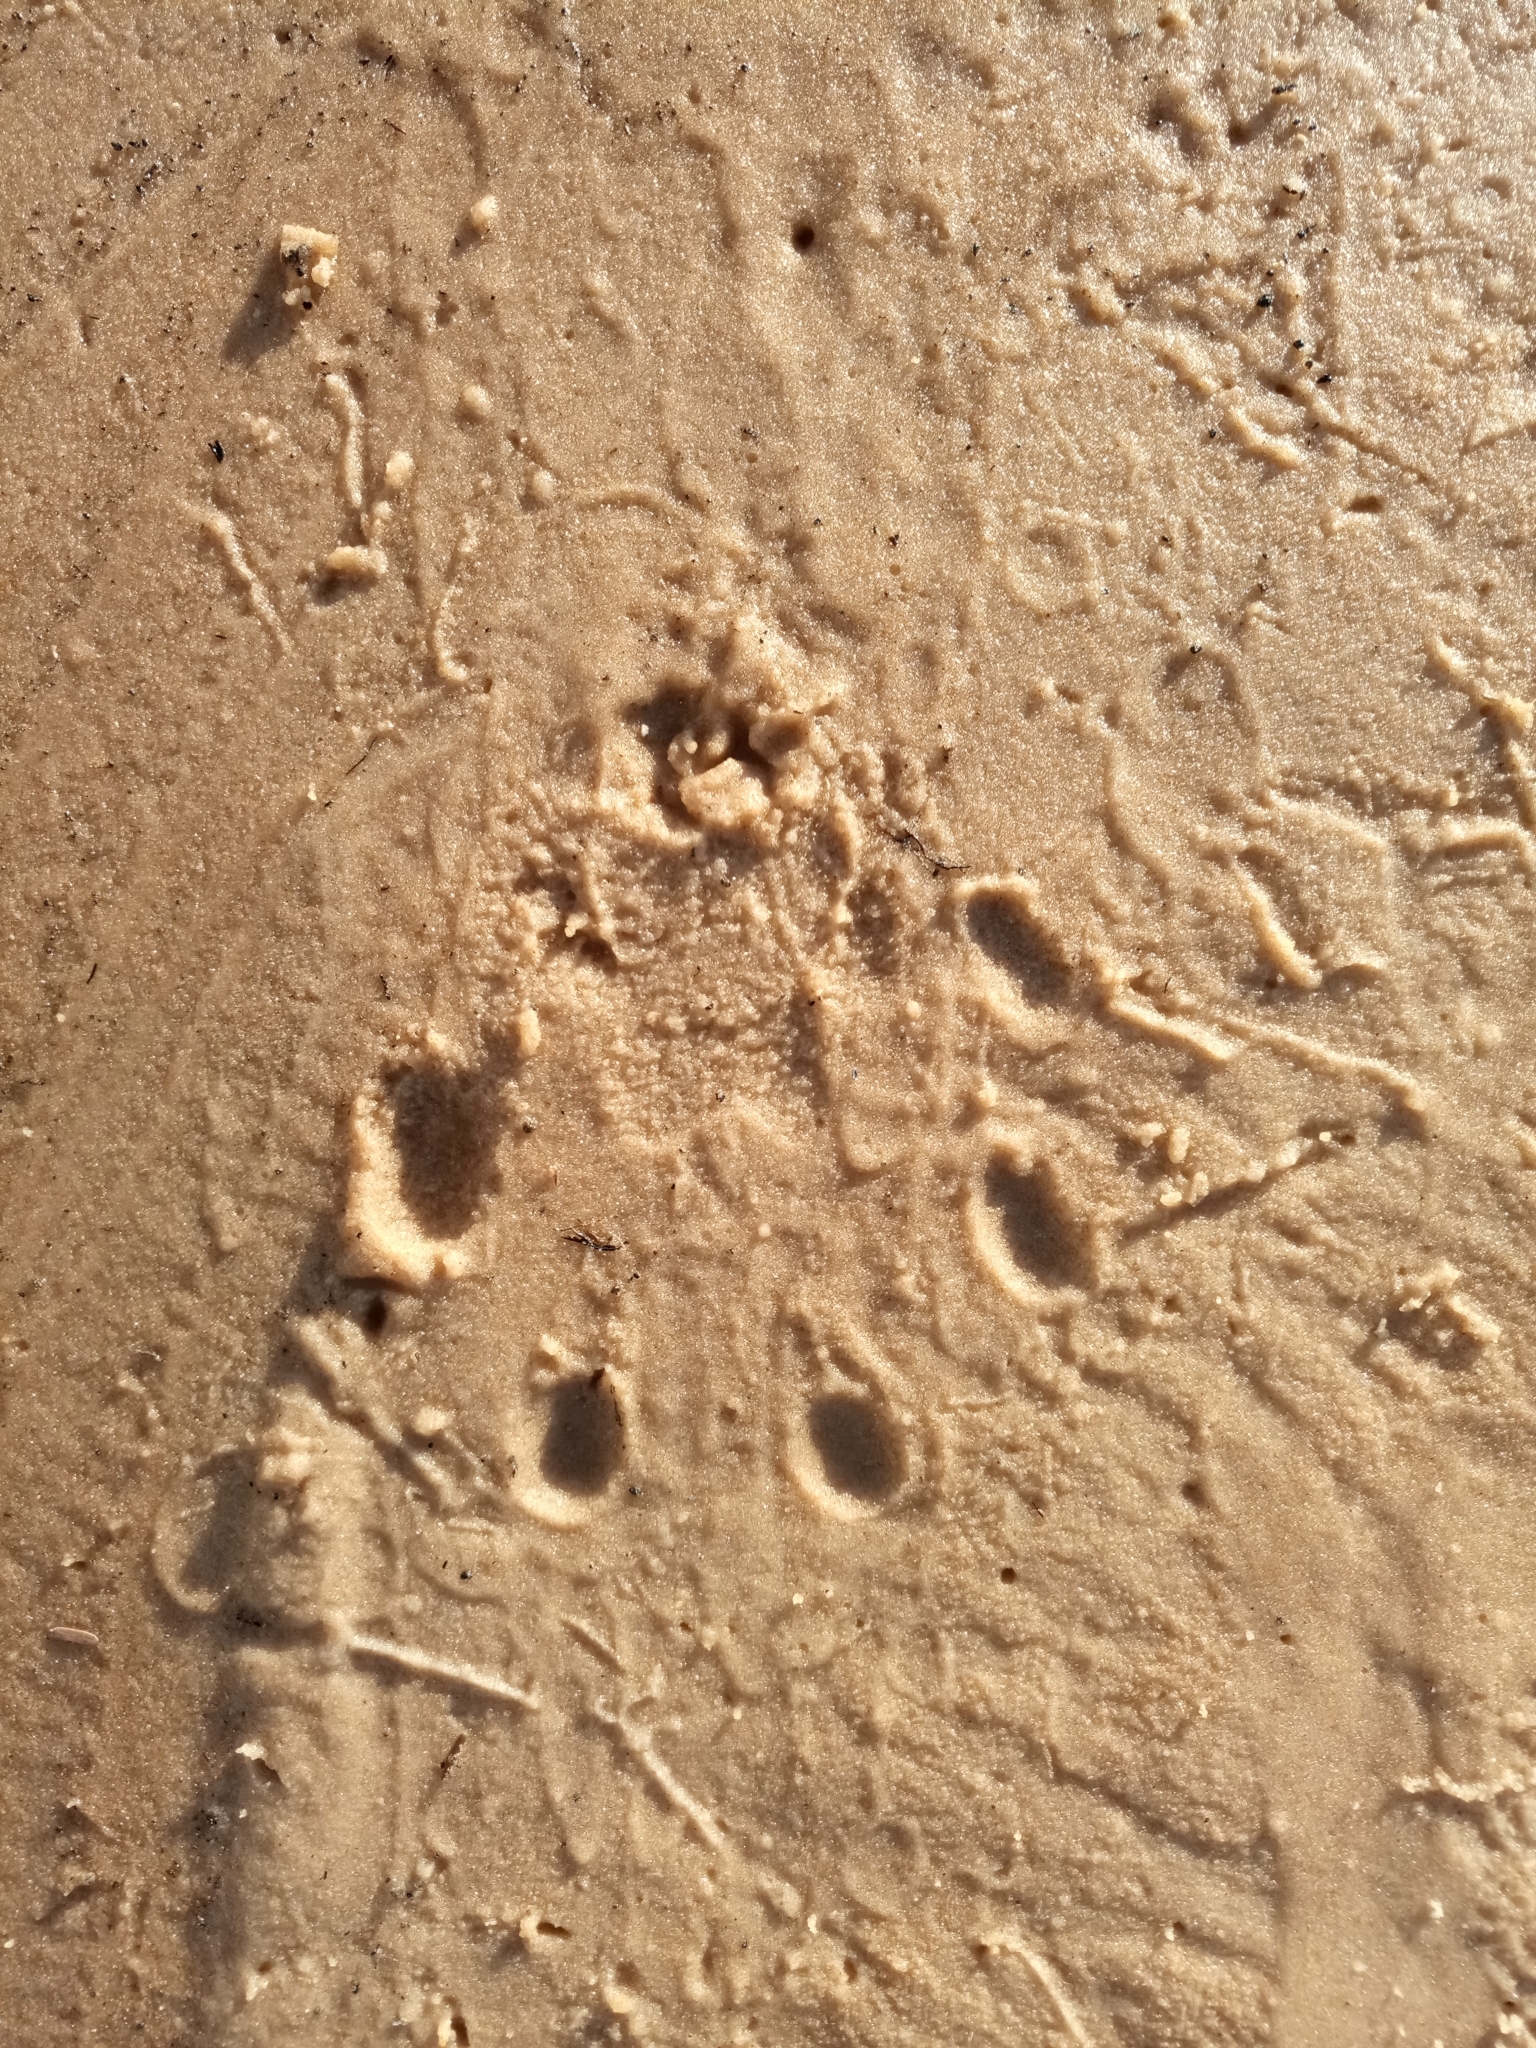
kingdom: Animalia
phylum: Chordata
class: Mammalia
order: Carnivora
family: Mustelidae
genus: Aonyx
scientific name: Aonyx capensis
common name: African clawless otter
